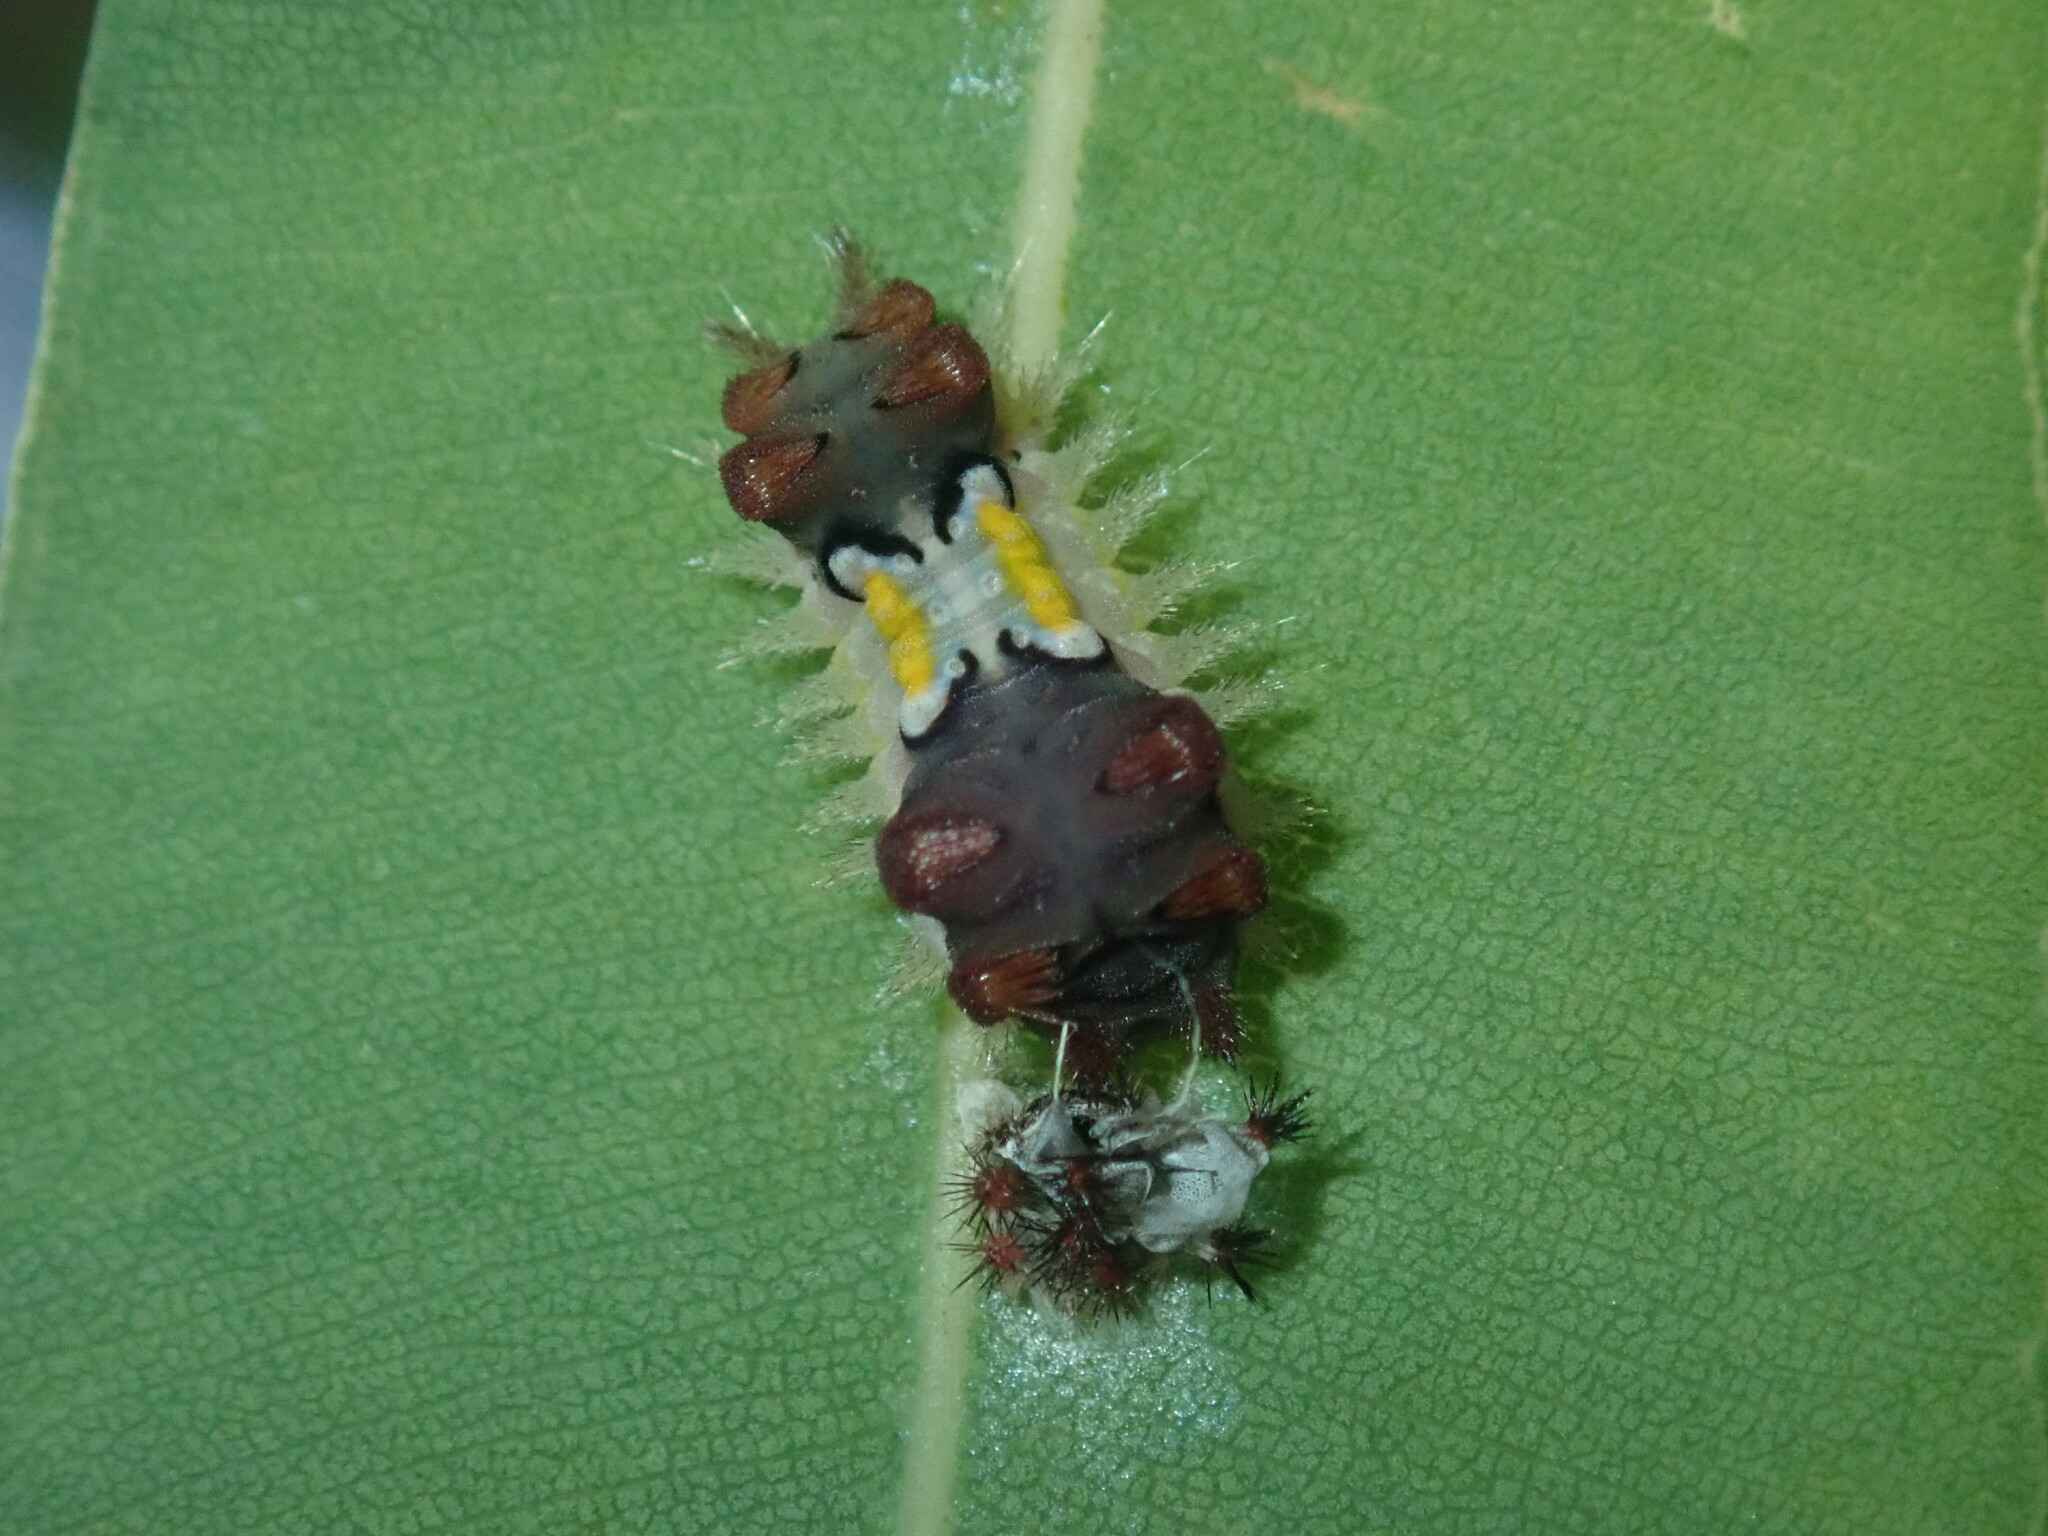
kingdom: Animalia
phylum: Arthropoda
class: Insecta
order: Lepidoptera
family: Limacodidae
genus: Doratifera
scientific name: Doratifera vulnerans
